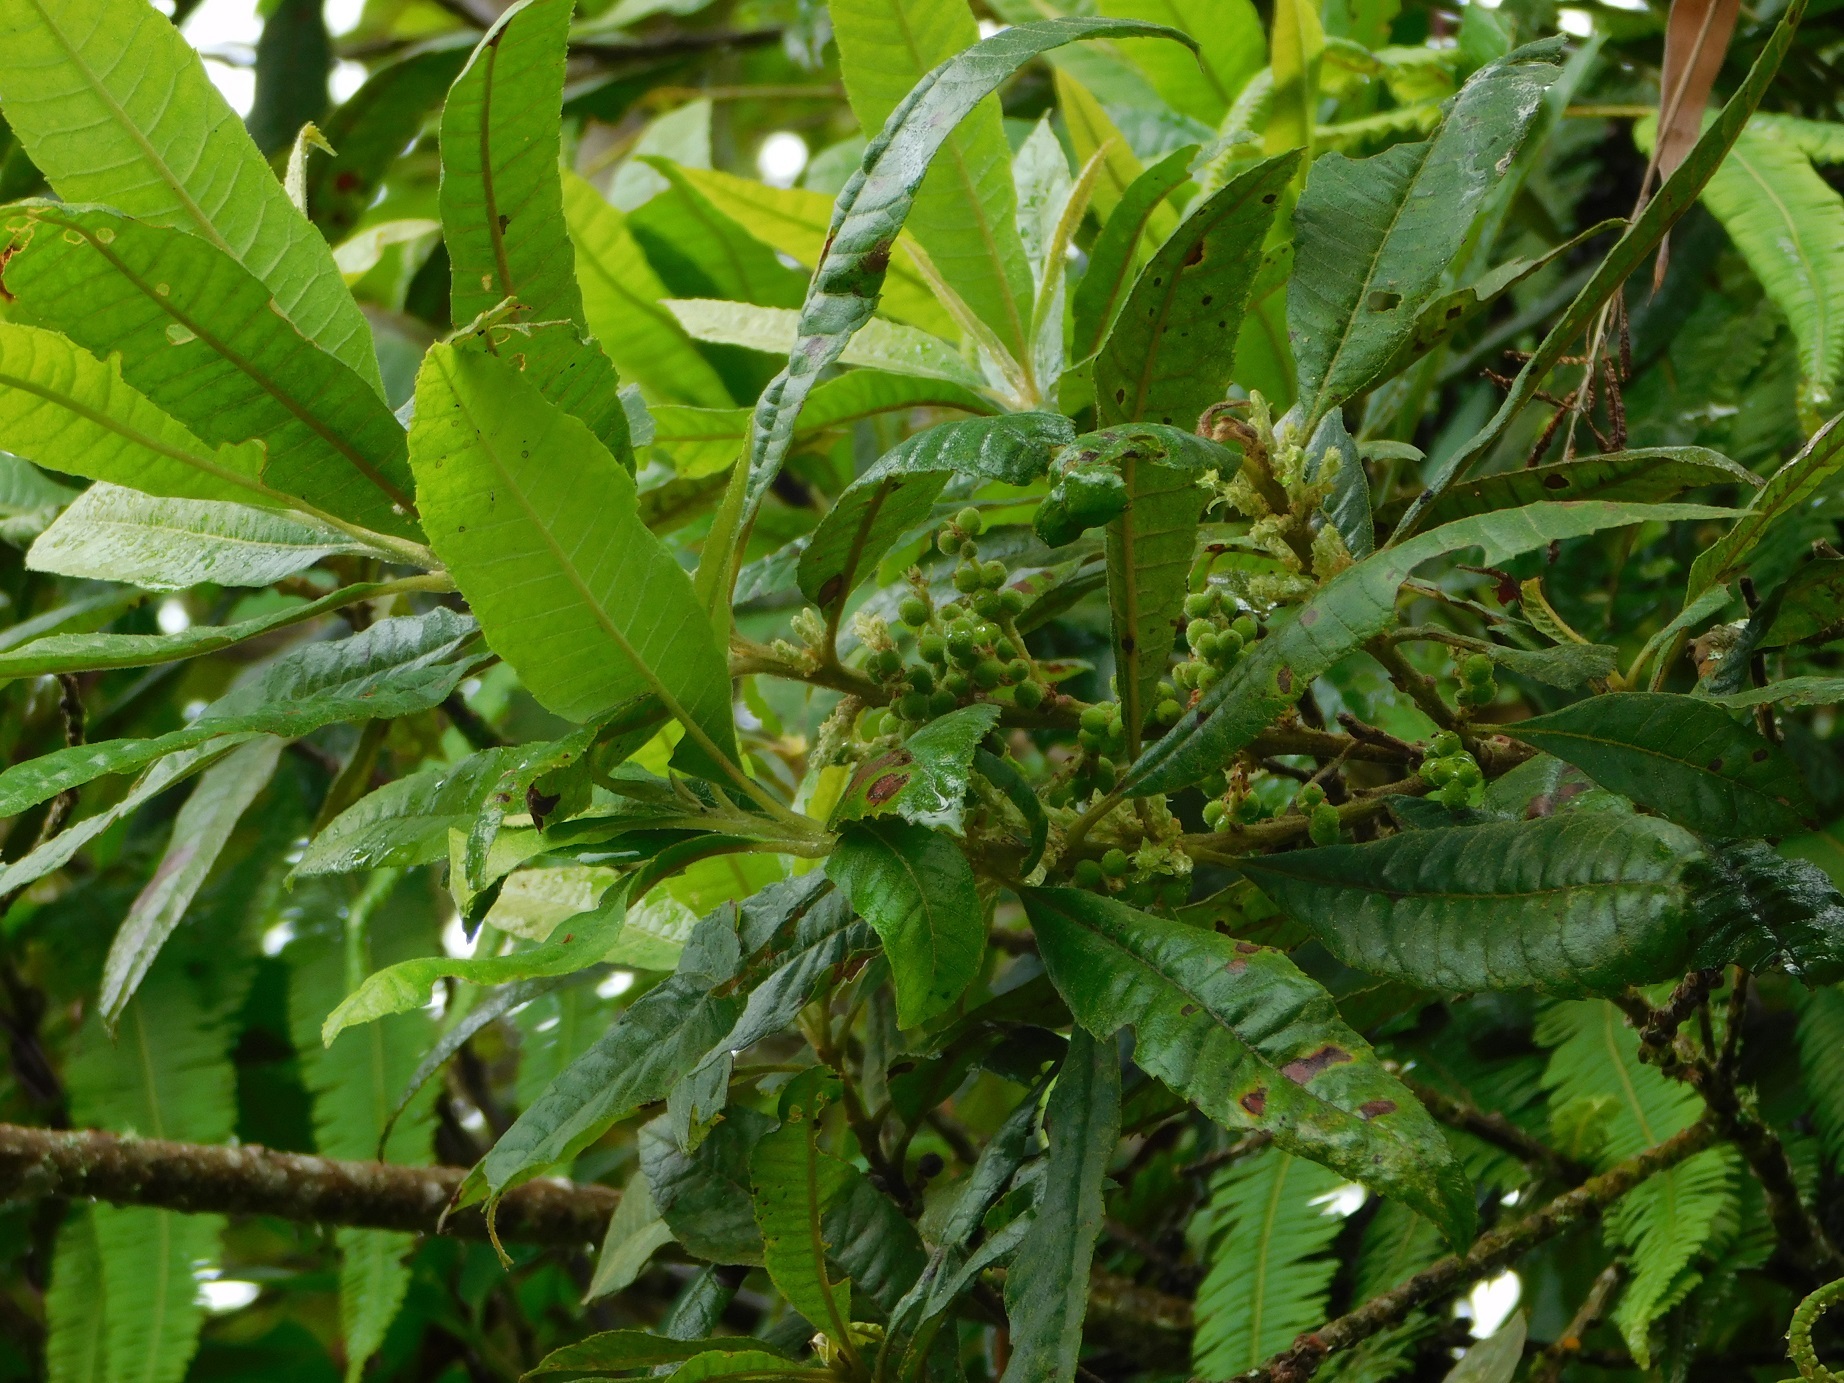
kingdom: Plantae
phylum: Tracheophyta
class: Magnoliopsida
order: Fagales
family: Myricaceae
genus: Morella
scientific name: Morella pubescens
